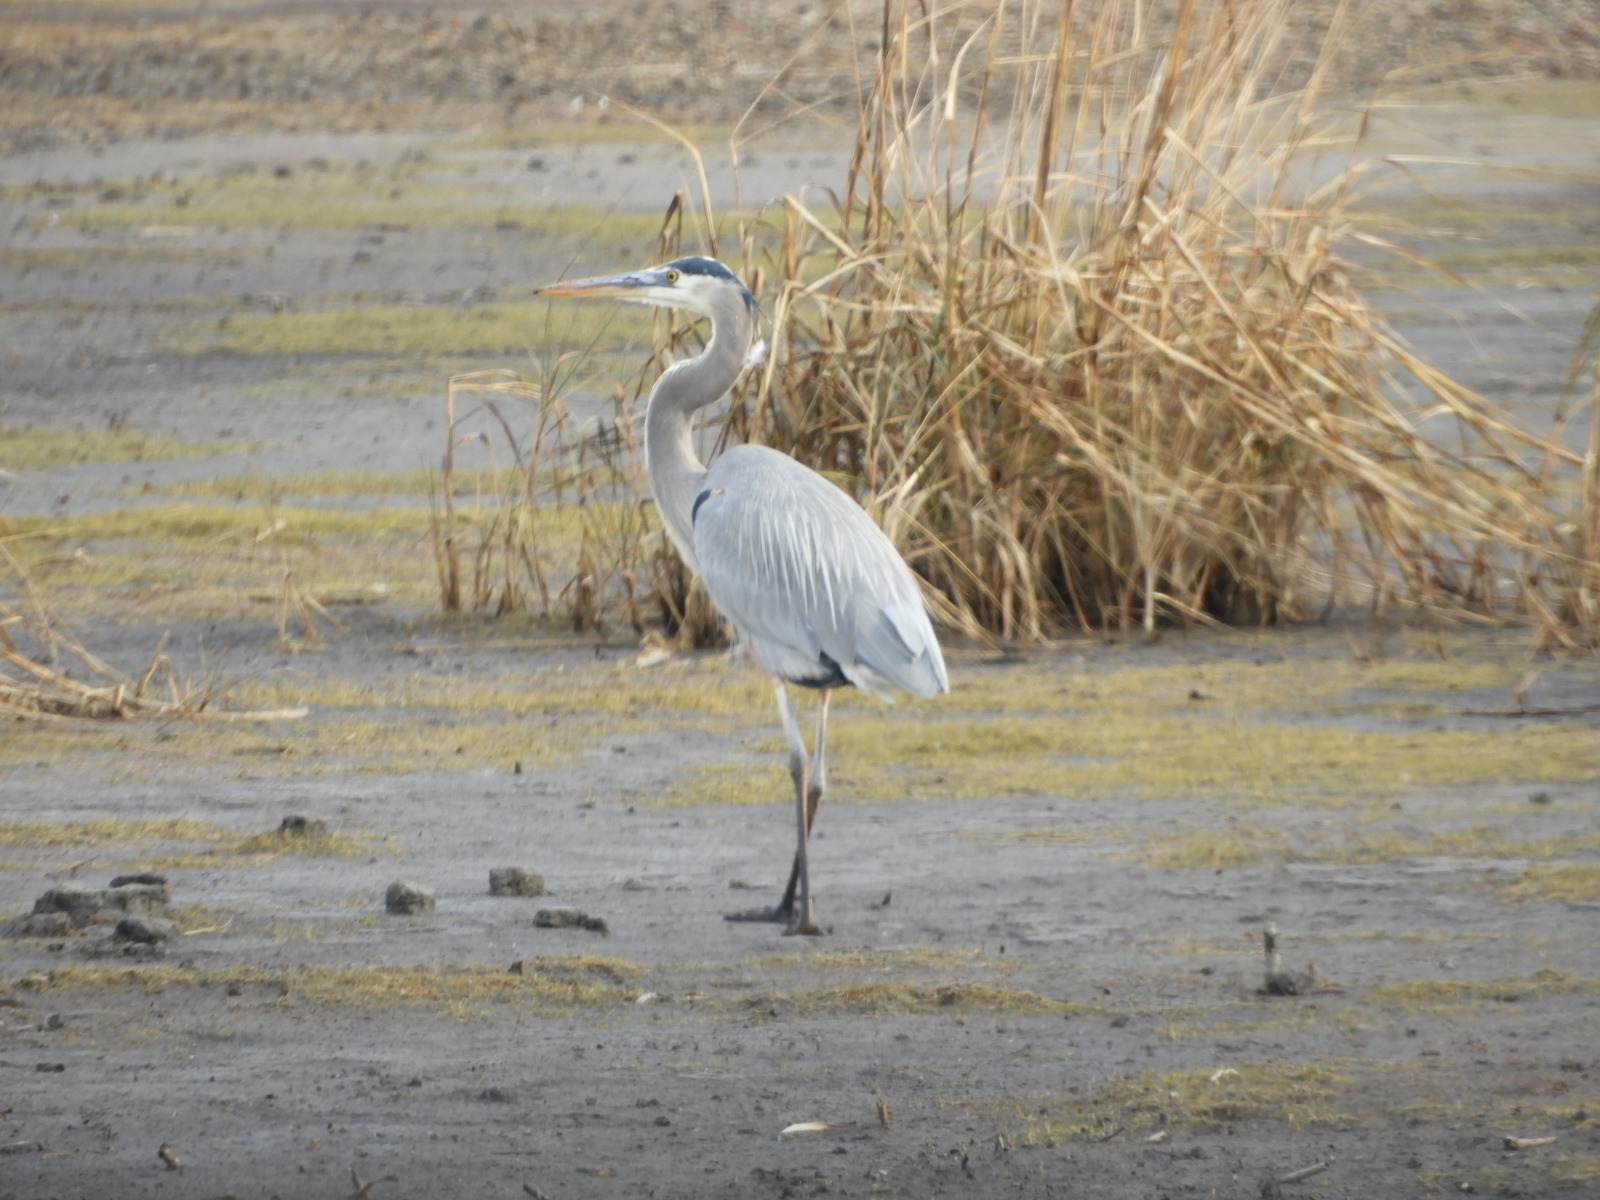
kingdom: Animalia
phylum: Chordata
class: Aves
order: Pelecaniformes
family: Ardeidae
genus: Ardea
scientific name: Ardea herodias
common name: Great blue heron
